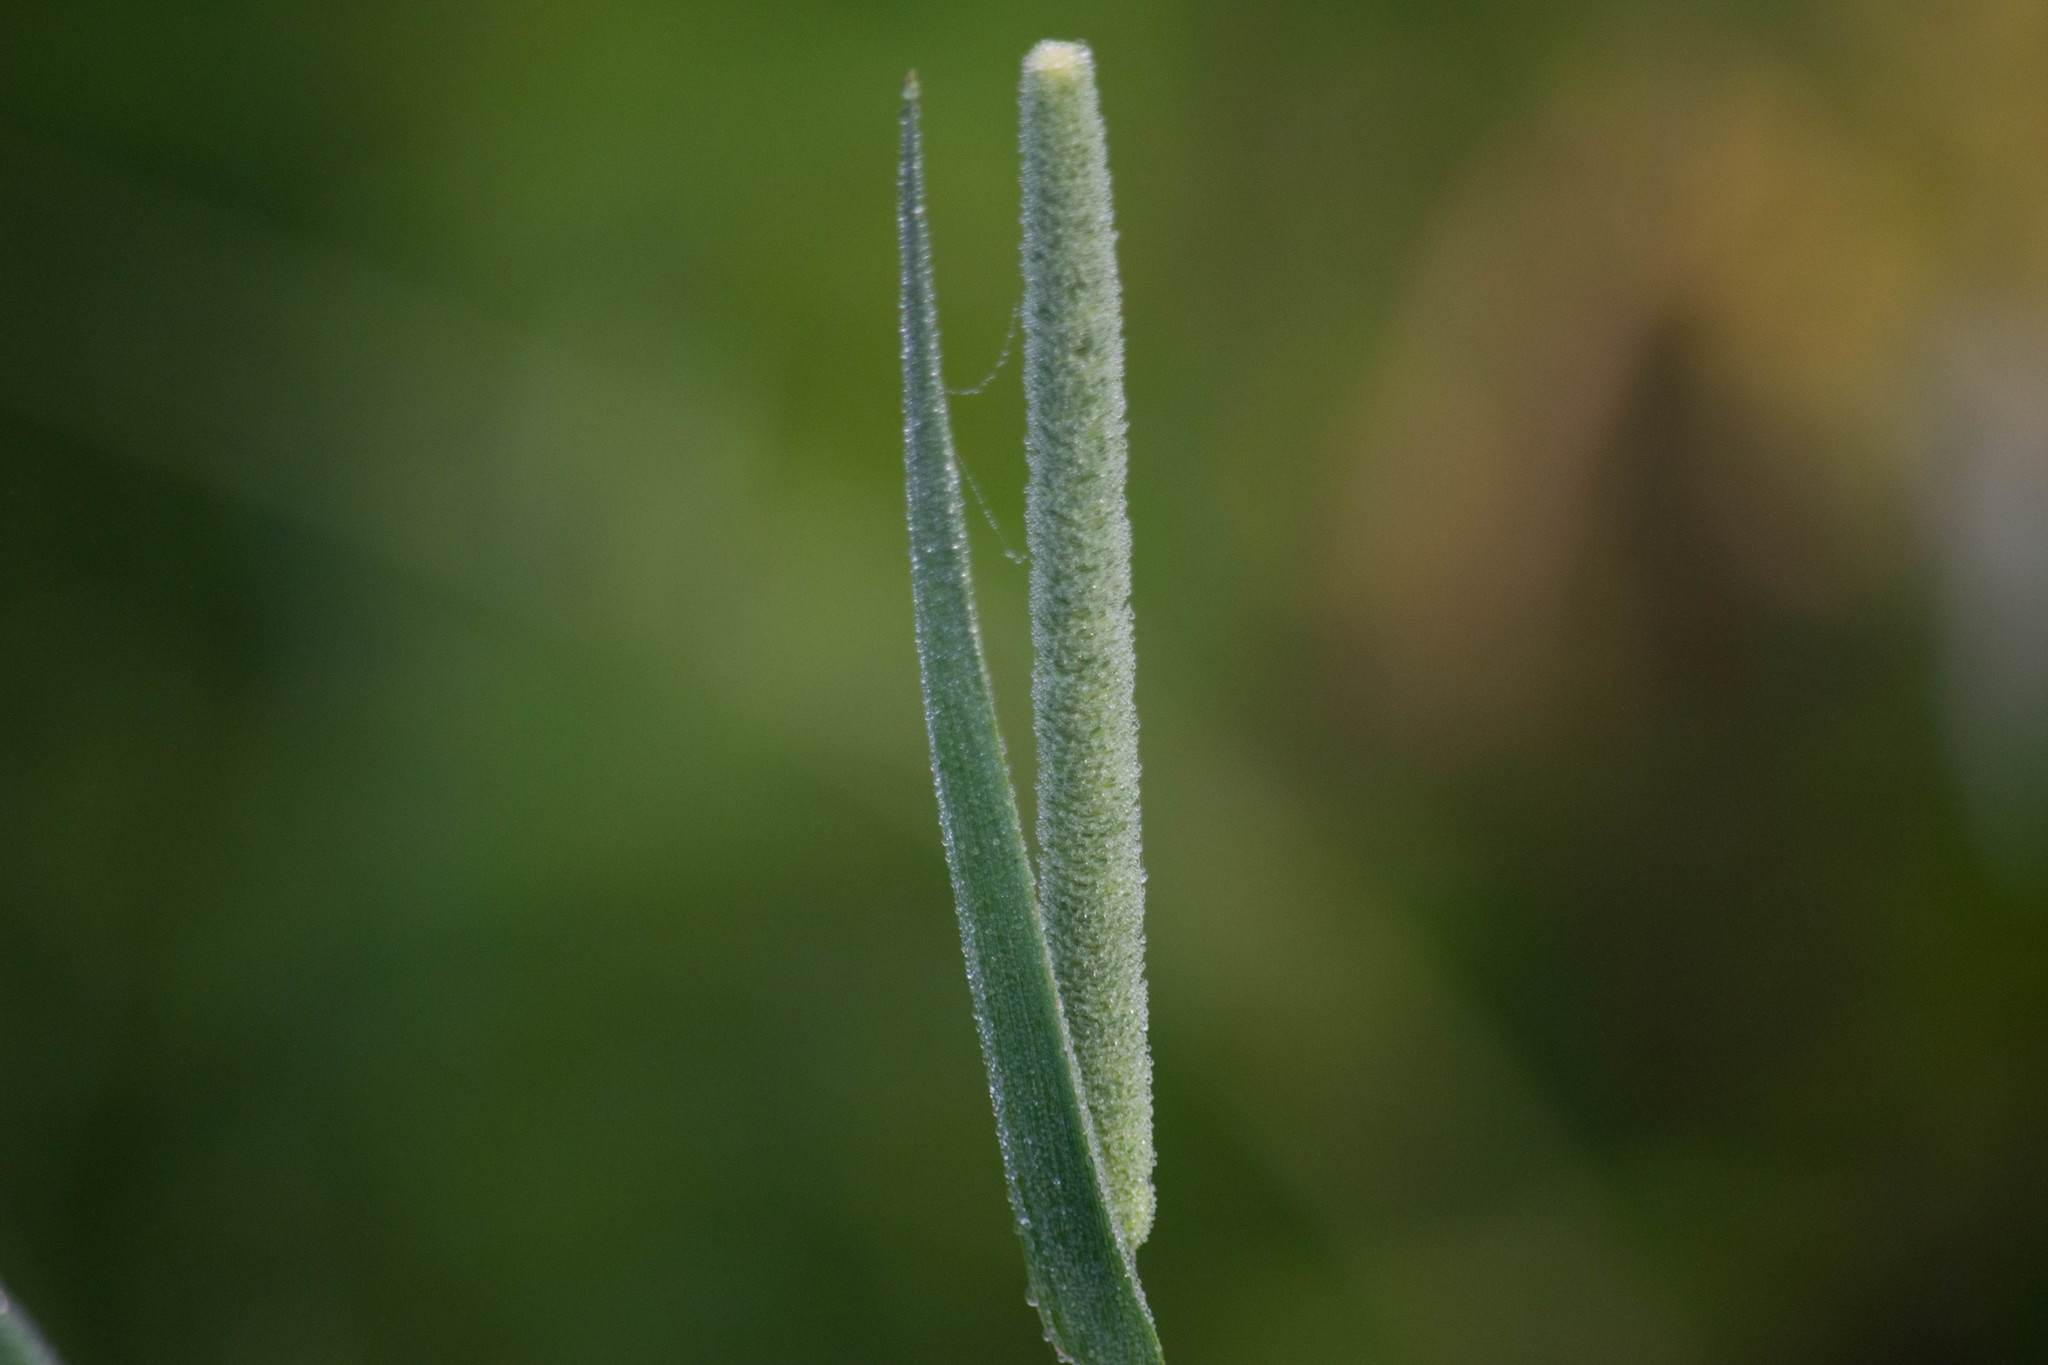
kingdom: Plantae
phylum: Tracheophyta
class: Liliopsida
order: Poales
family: Poaceae
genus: Phleum
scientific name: Phleum pratense
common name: Timothy grass
